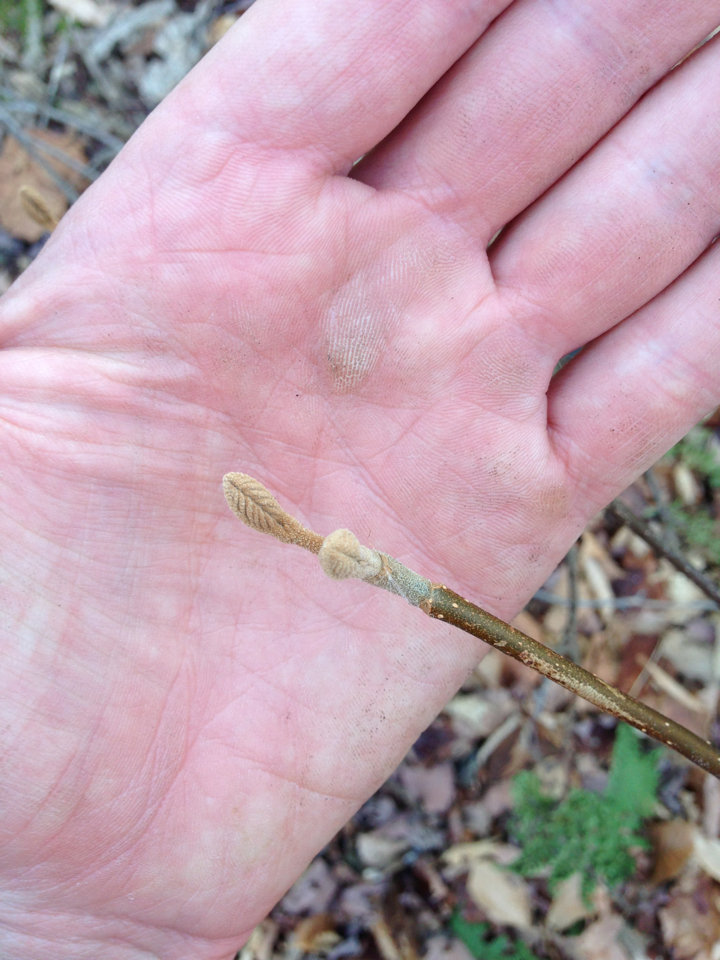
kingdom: Plantae
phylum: Tracheophyta
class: Magnoliopsida
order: Dipsacales
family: Viburnaceae
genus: Viburnum
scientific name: Viburnum lantanoides
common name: Hobblebush
